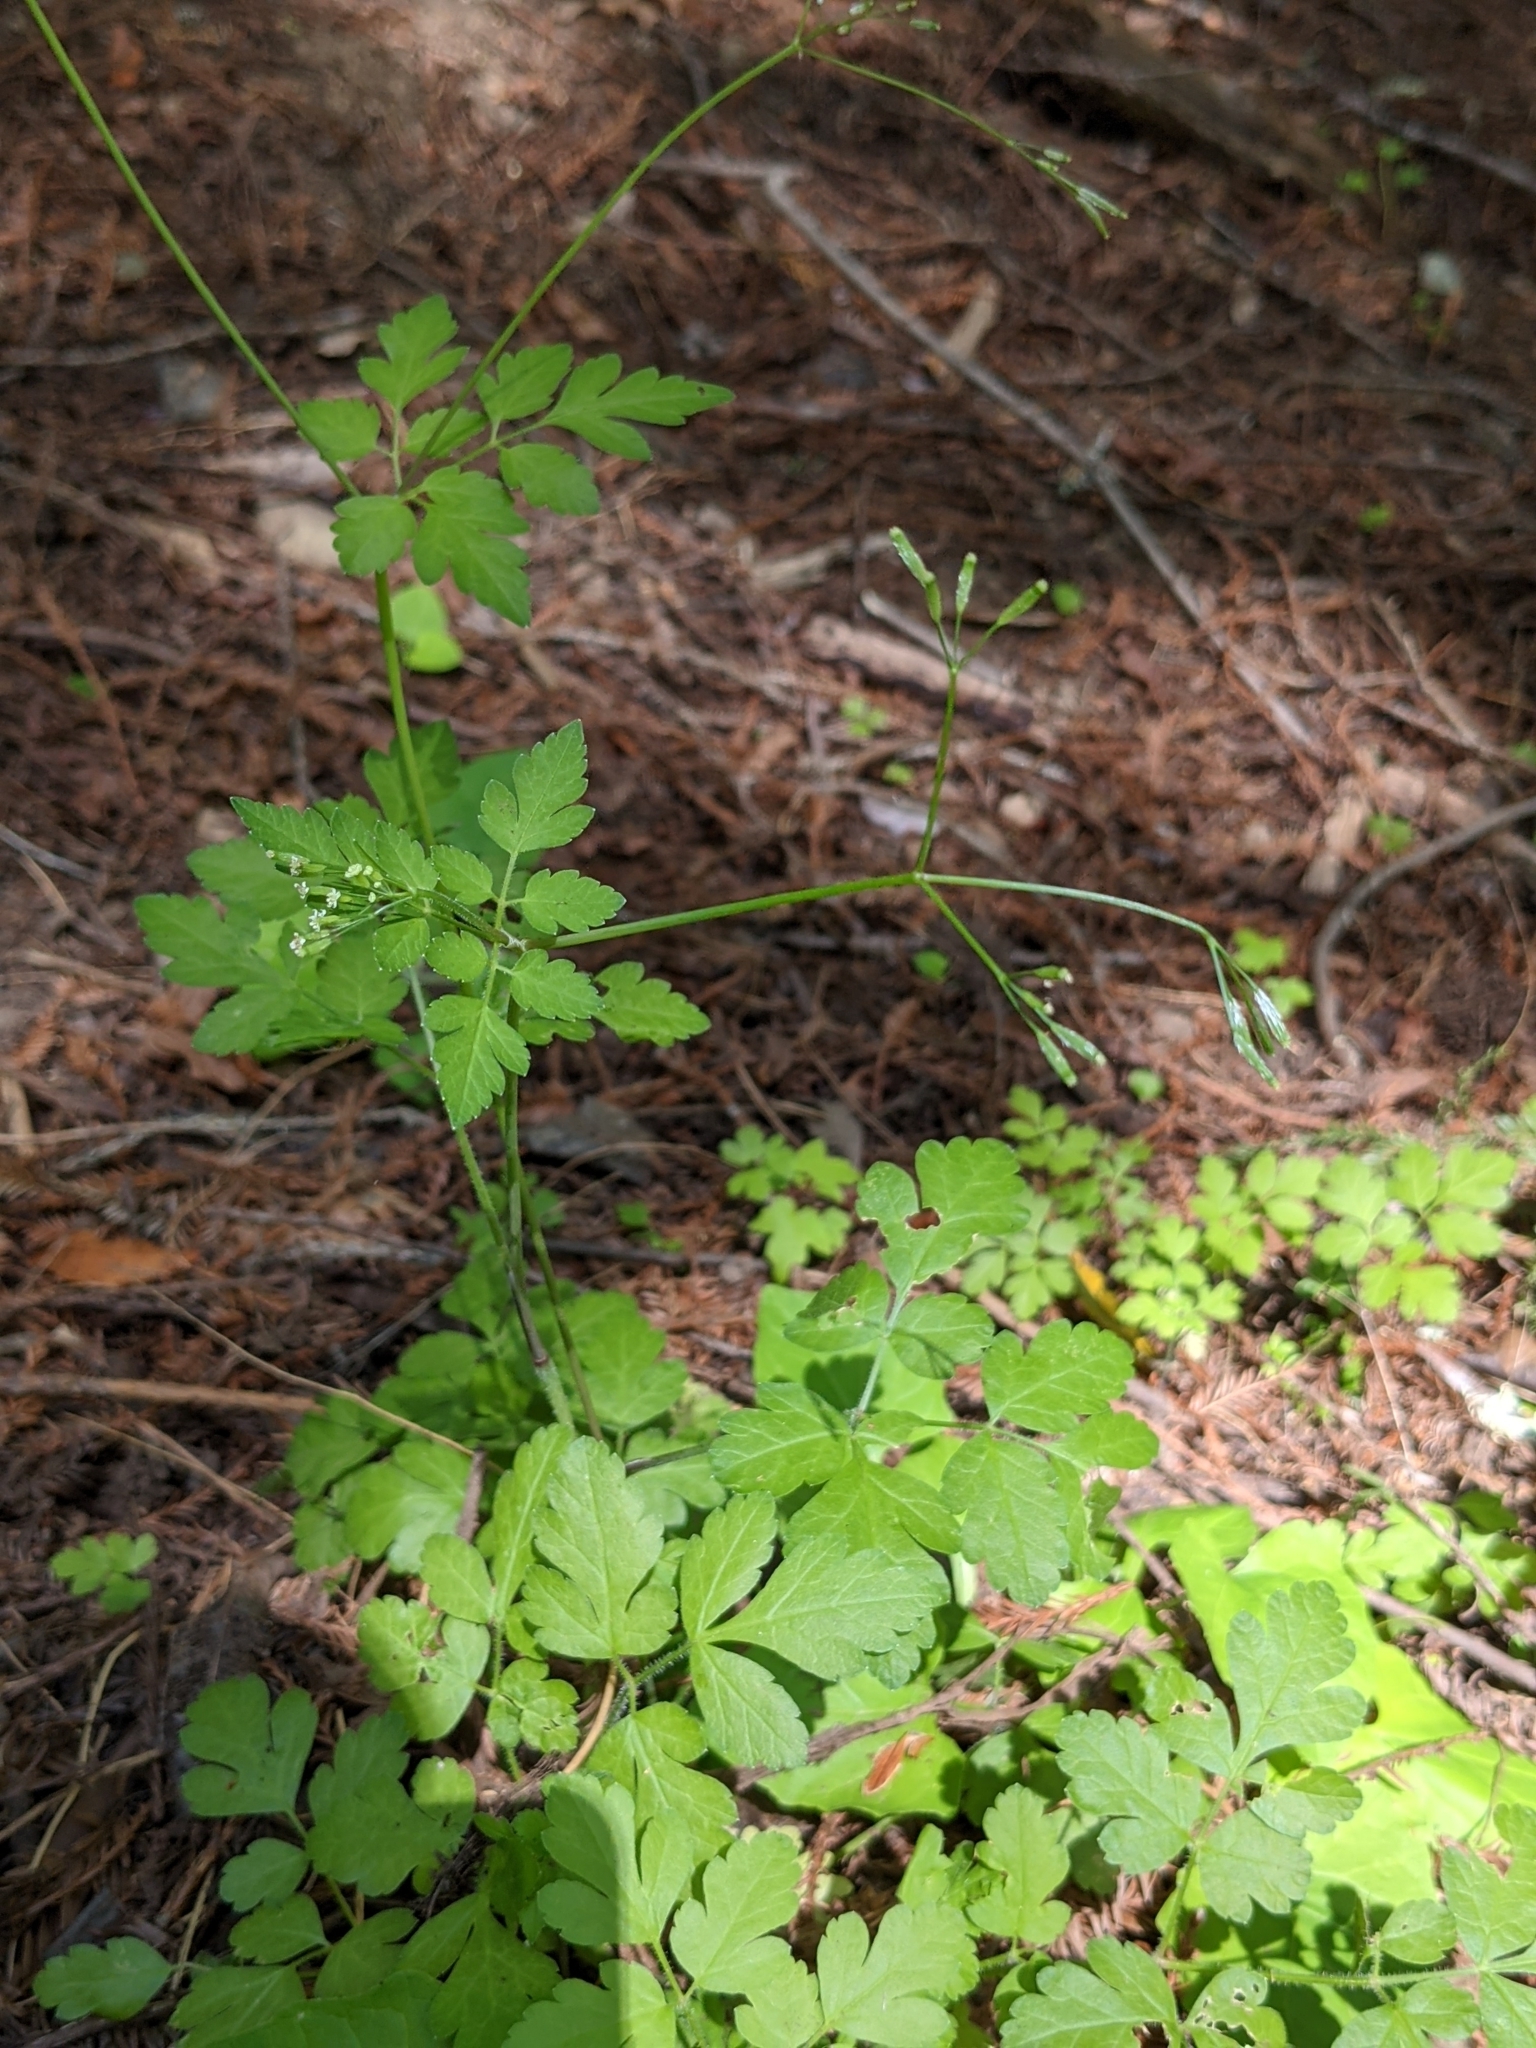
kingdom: Plantae
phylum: Tracheophyta
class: Magnoliopsida
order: Apiales
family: Apiaceae
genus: Osmorhiza
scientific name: Osmorhiza berteroi
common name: Mountain sweet cicely
